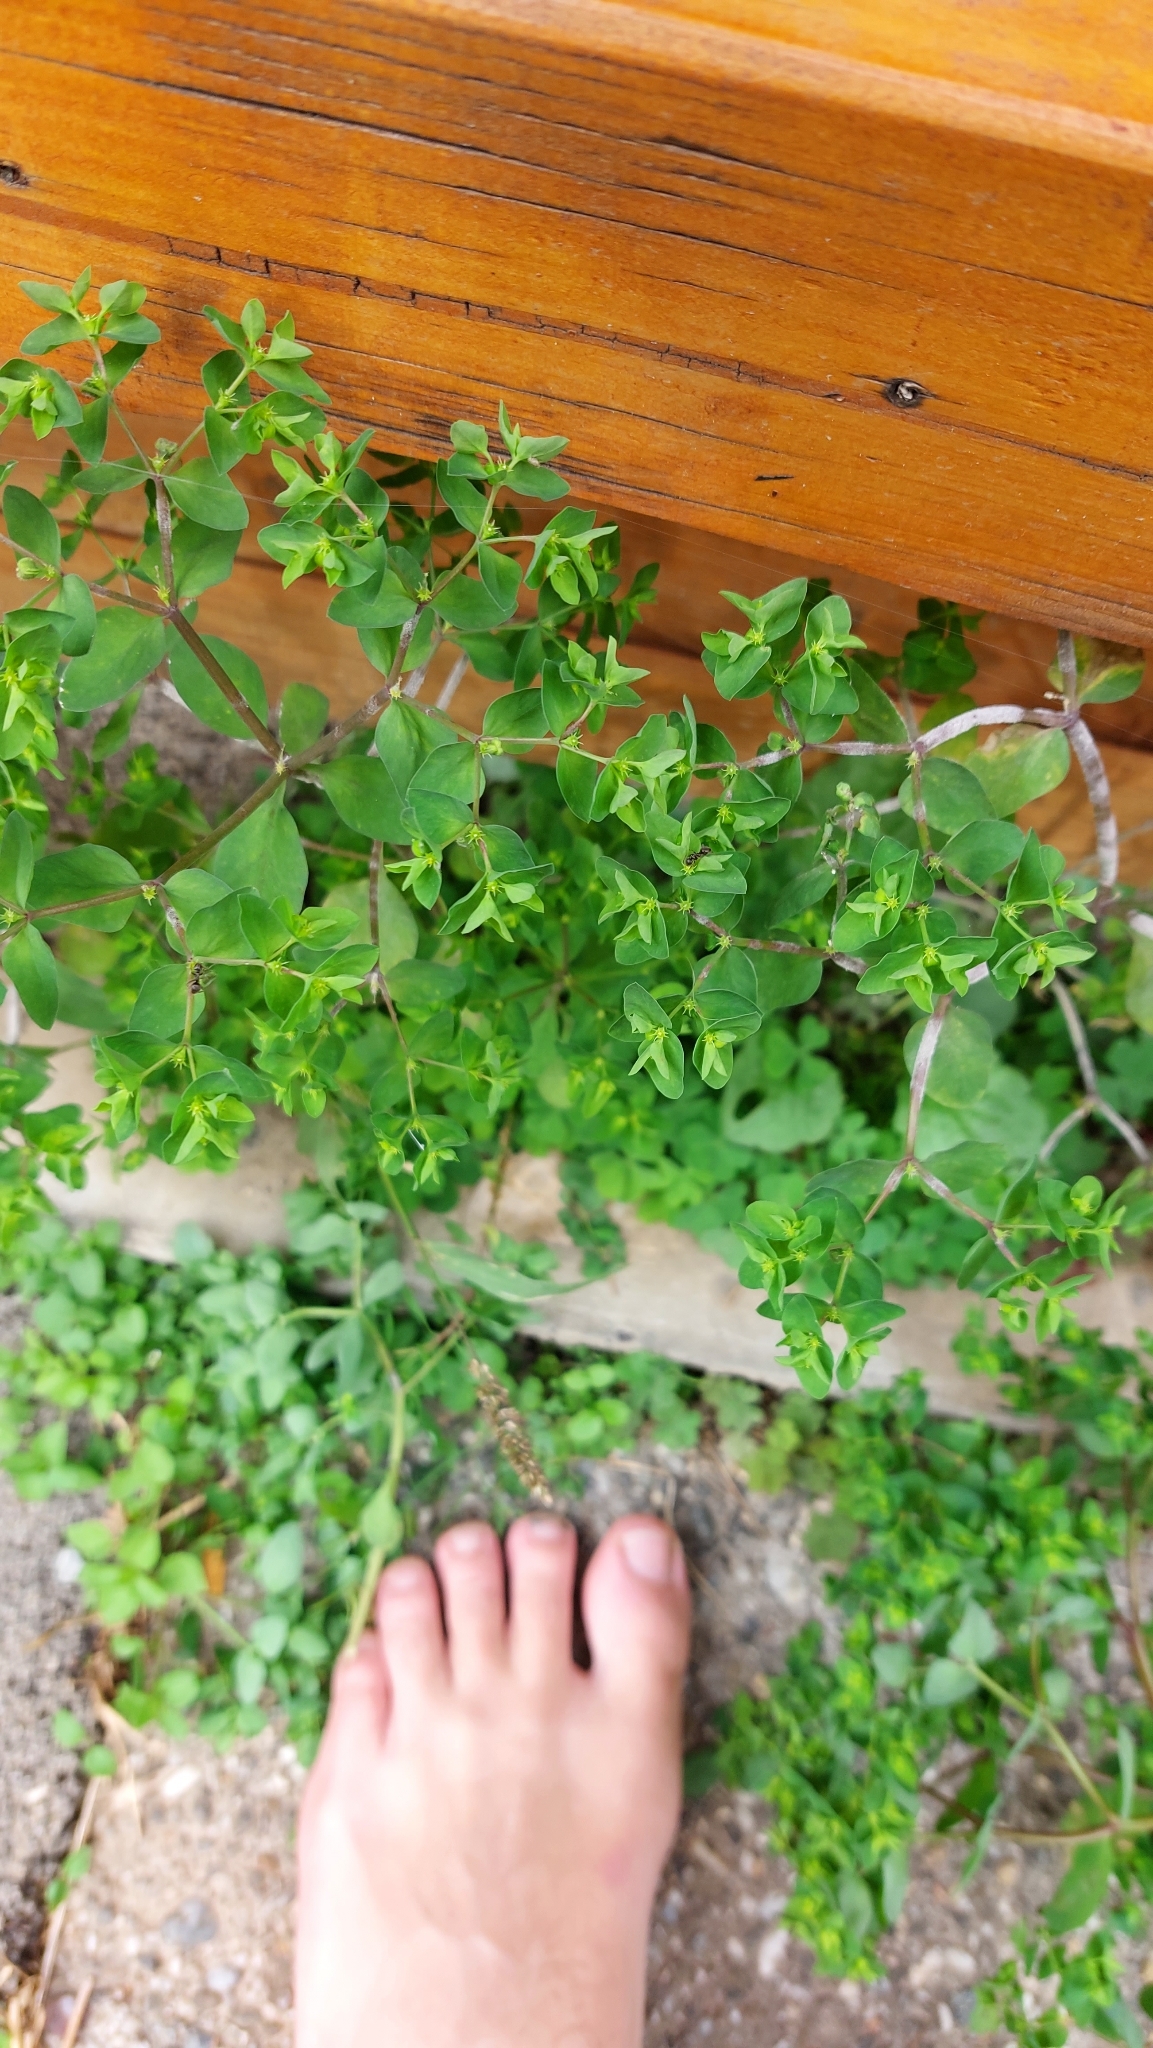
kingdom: Plantae
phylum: Tracheophyta
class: Magnoliopsida
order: Malpighiales
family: Euphorbiaceae
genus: Euphorbia
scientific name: Euphorbia peplus
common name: Petty spurge
